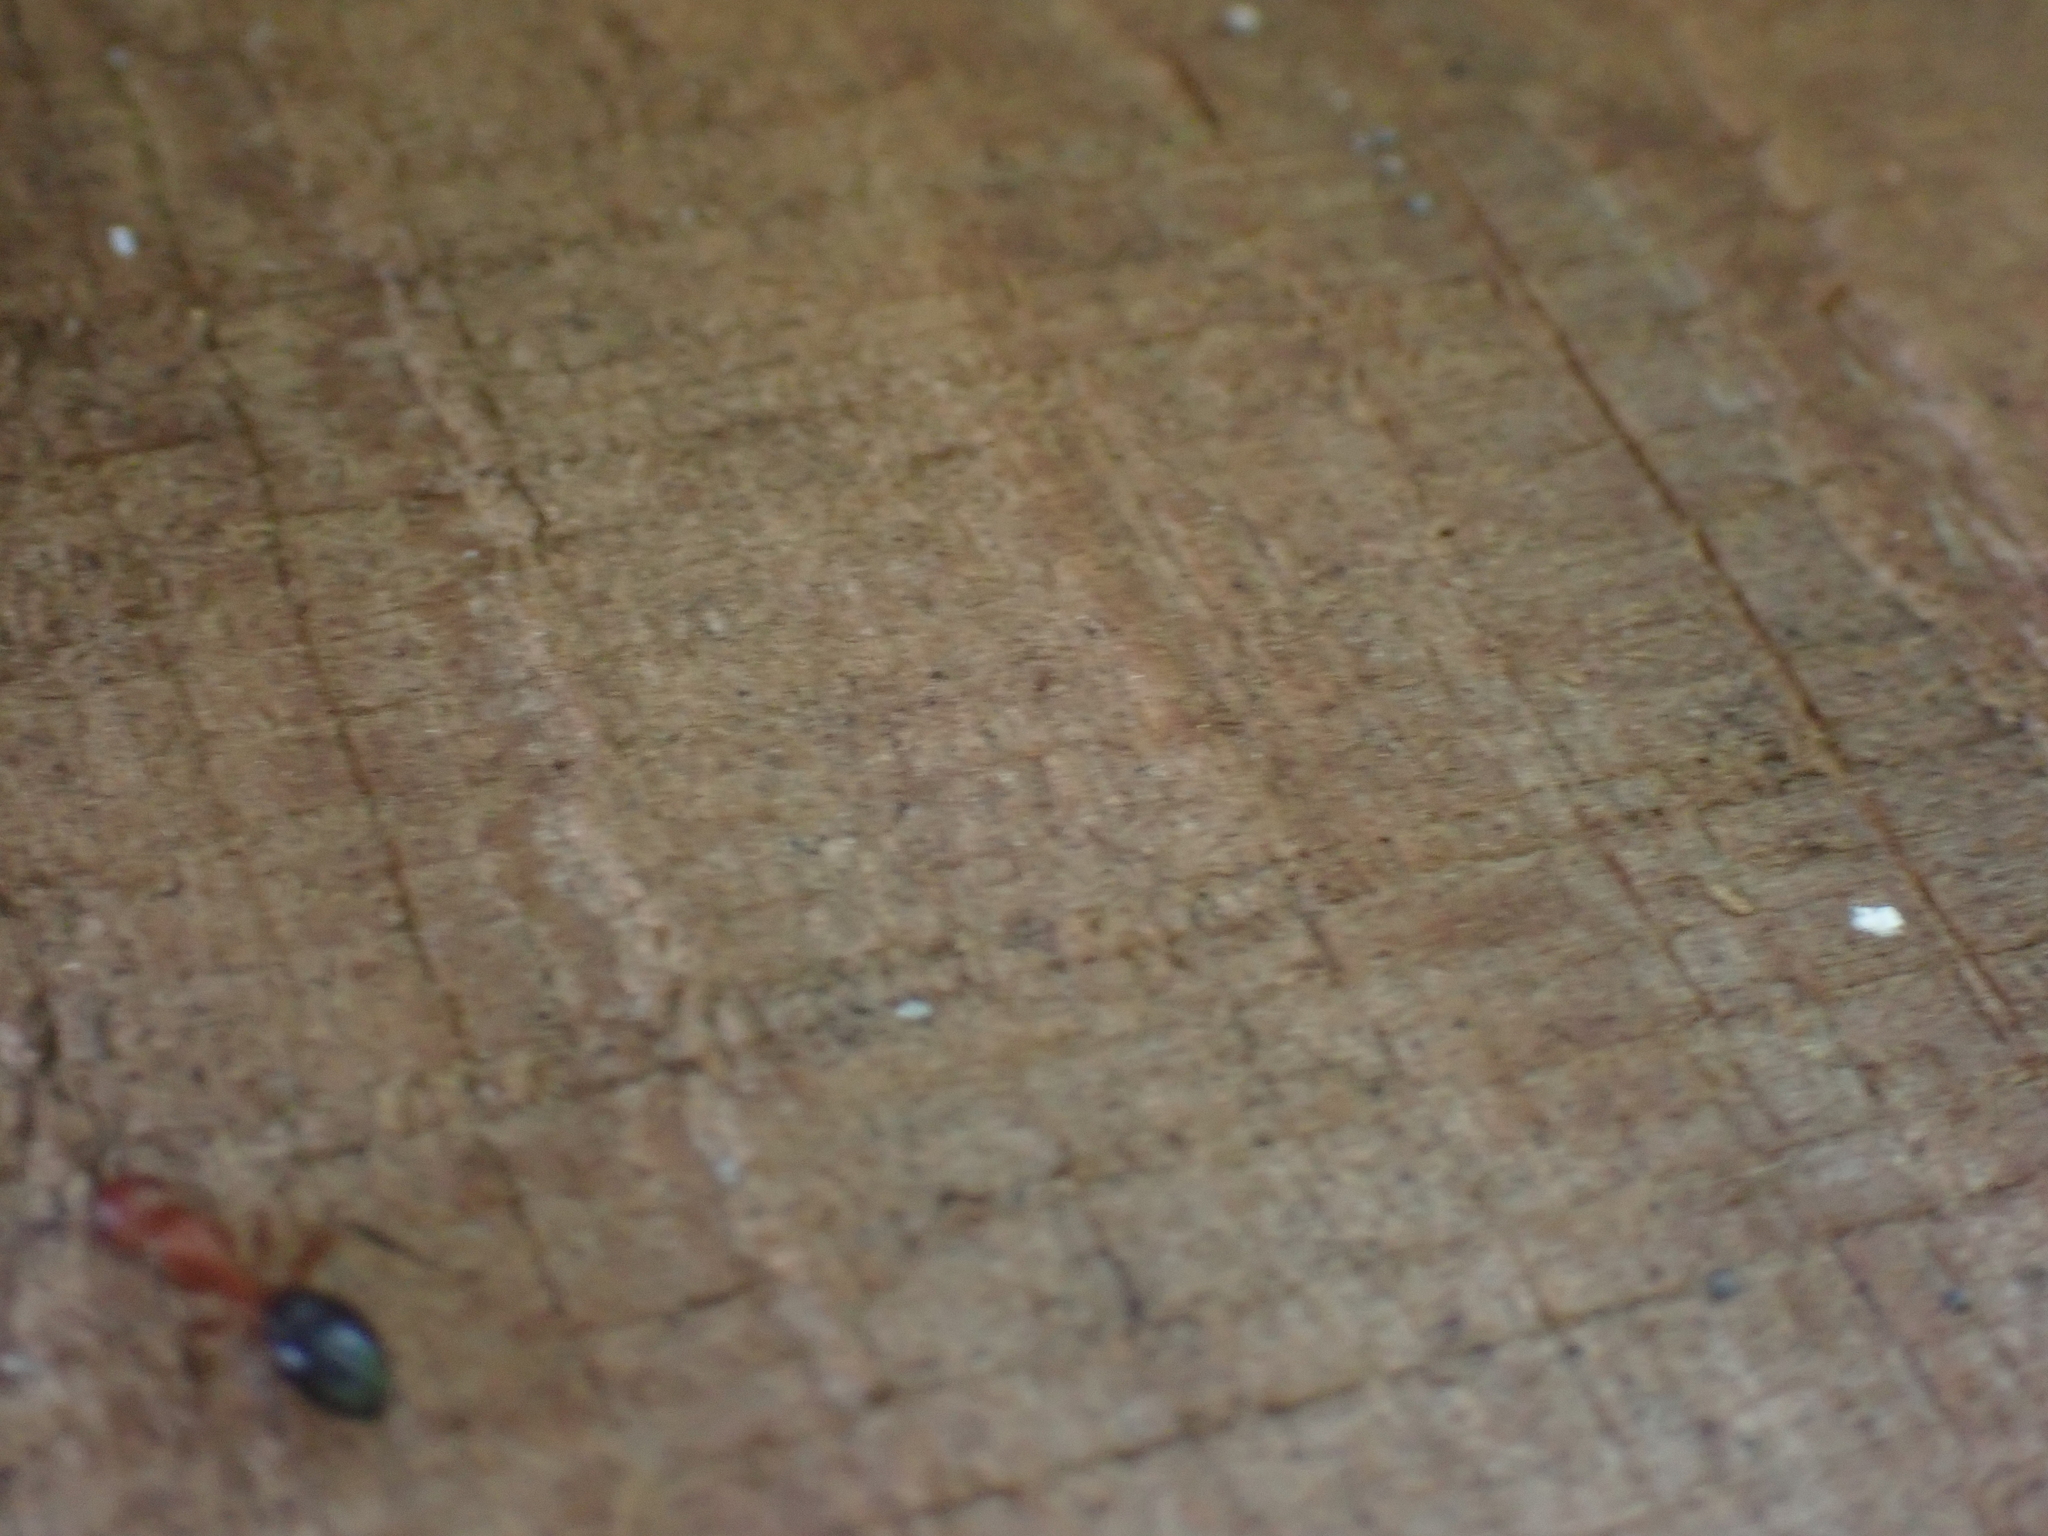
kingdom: Animalia
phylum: Arthropoda
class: Insecta
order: Hymenoptera
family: Formicidae
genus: Camponotus
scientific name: Camponotus decipiens
